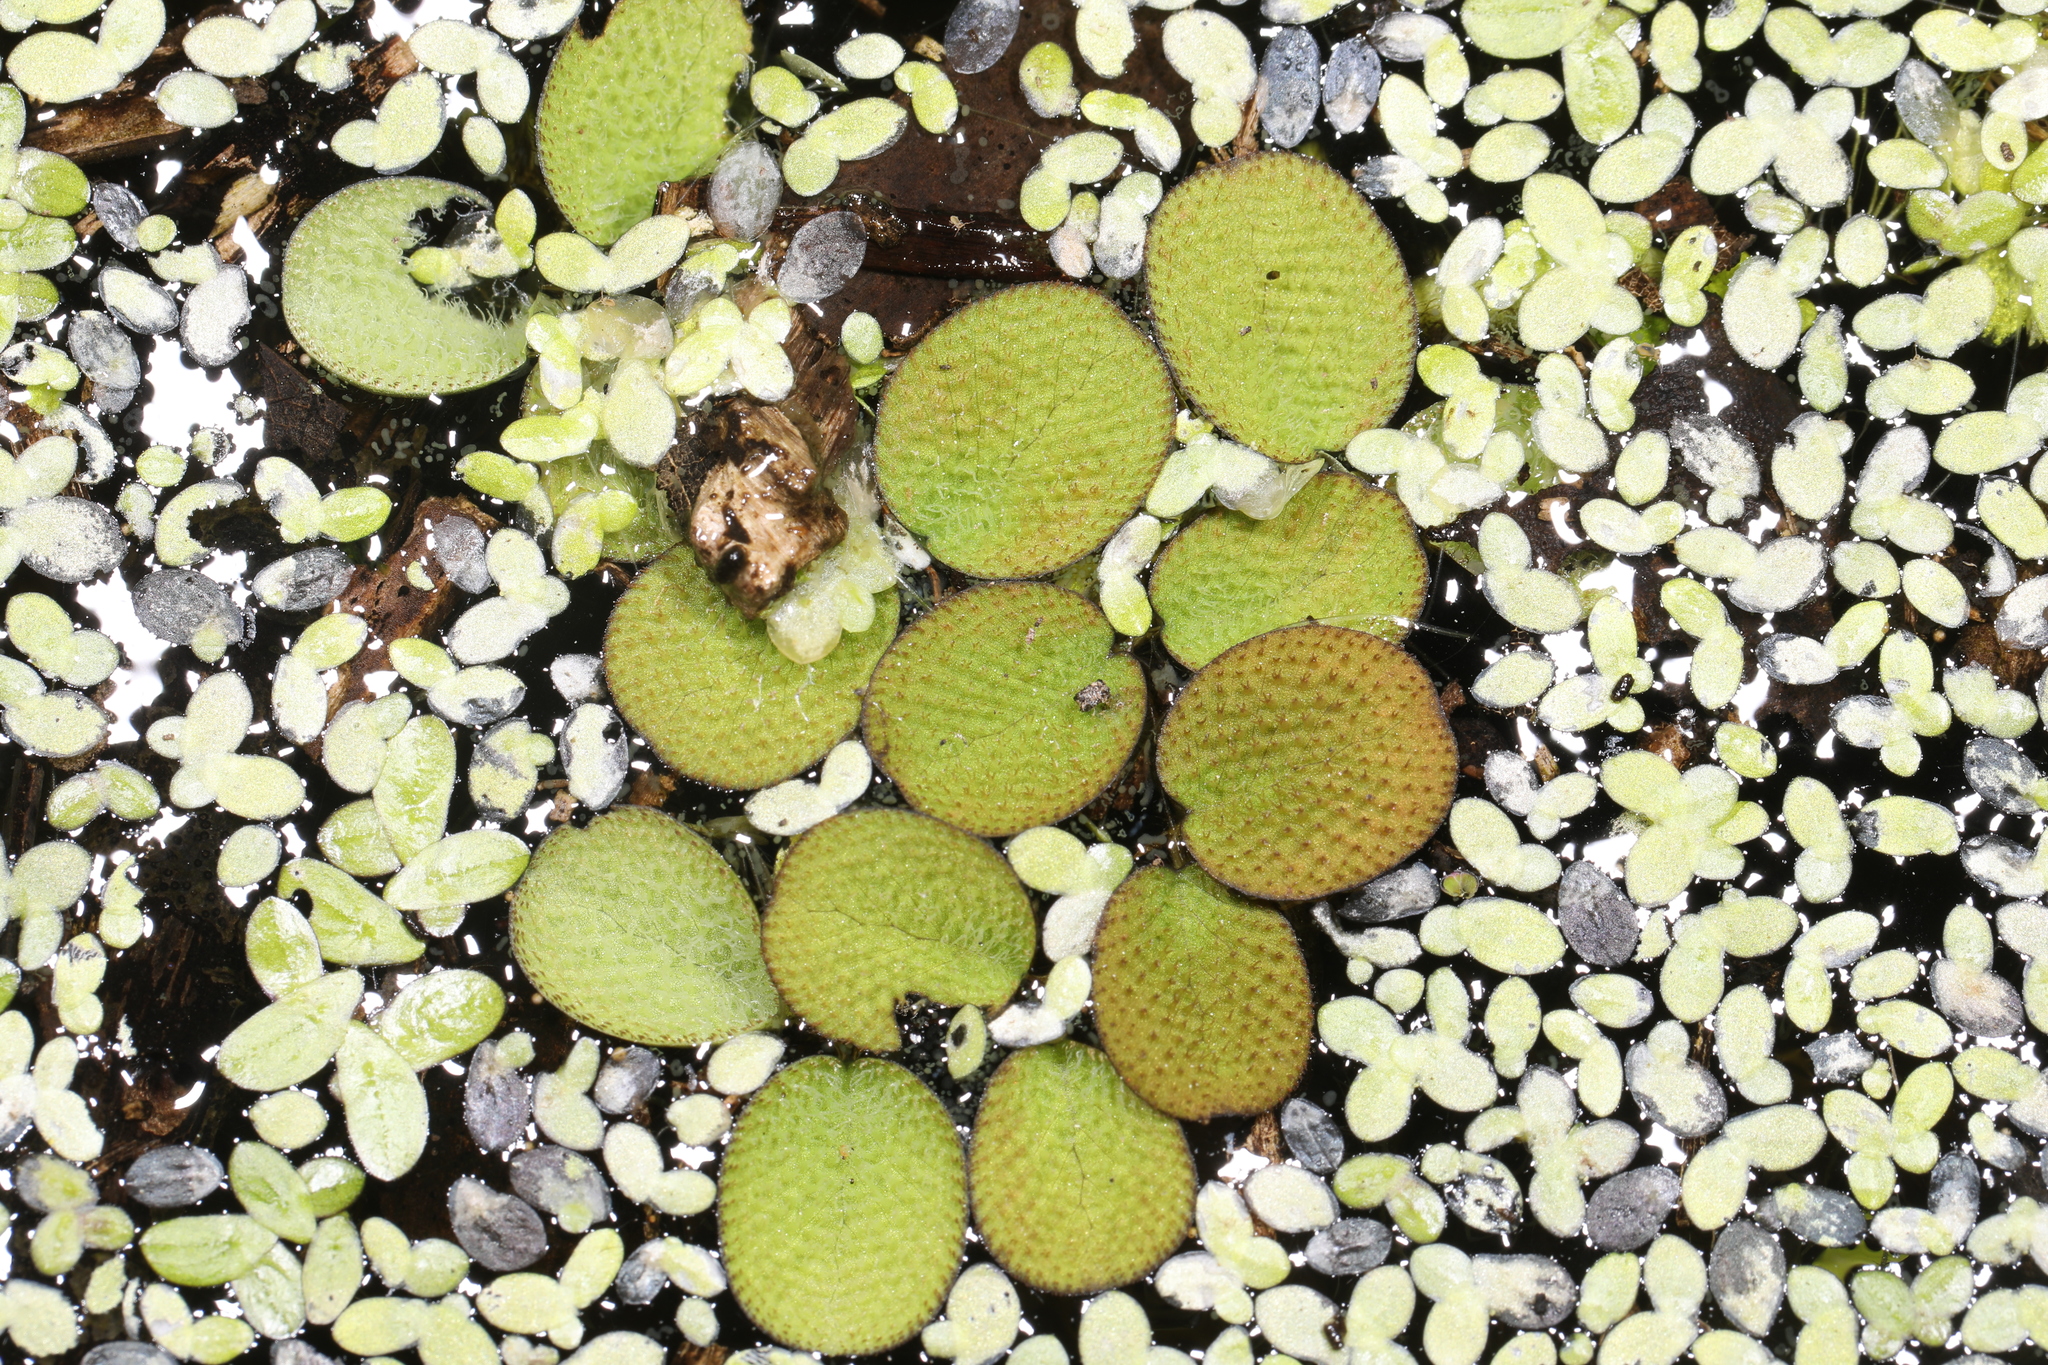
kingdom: Plantae
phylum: Tracheophyta
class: Polypodiopsida
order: Salviniales
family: Salviniaceae
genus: Salvinia
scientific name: Salvinia minima
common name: Water spangles
